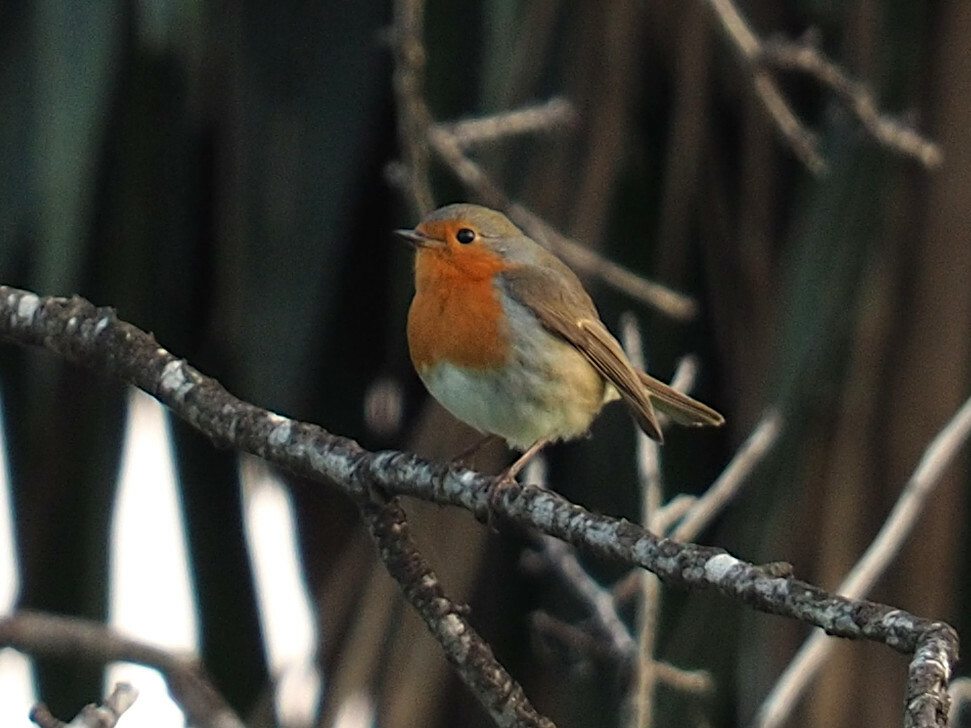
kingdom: Animalia
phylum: Chordata
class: Aves
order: Passeriformes
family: Muscicapidae
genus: Erithacus
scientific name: Erithacus rubecula
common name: European robin
